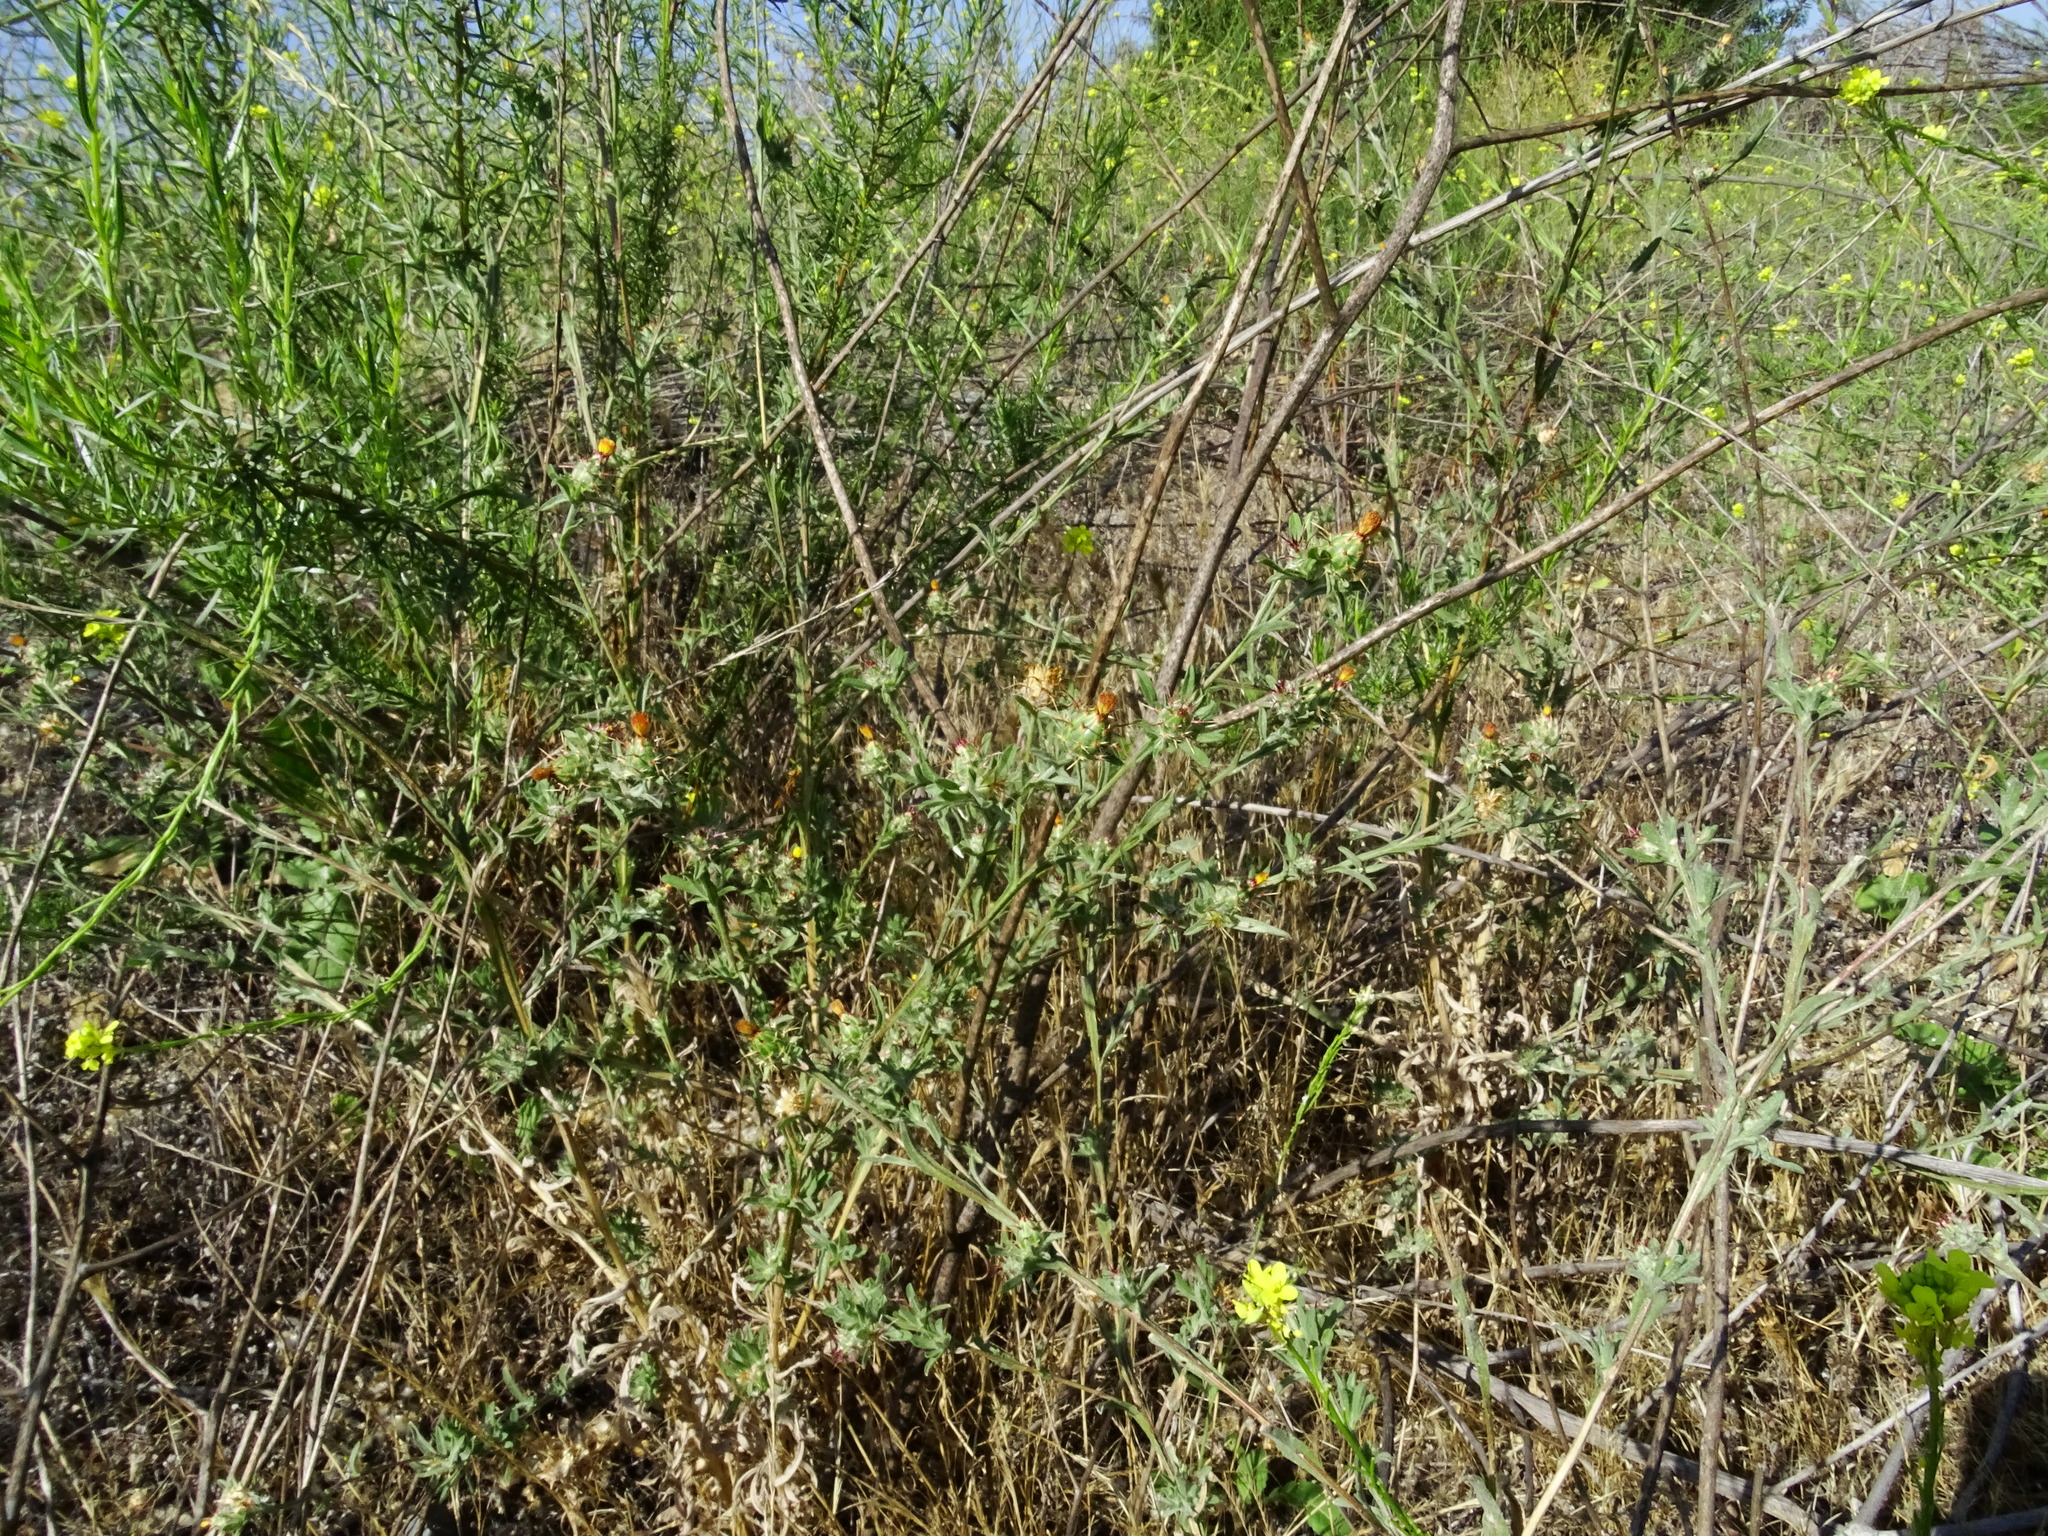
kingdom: Plantae
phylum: Tracheophyta
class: Magnoliopsida
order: Asterales
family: Asteraceae
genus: Centaurea
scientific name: Centaurea melitensis
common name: Maltese star-thistle
